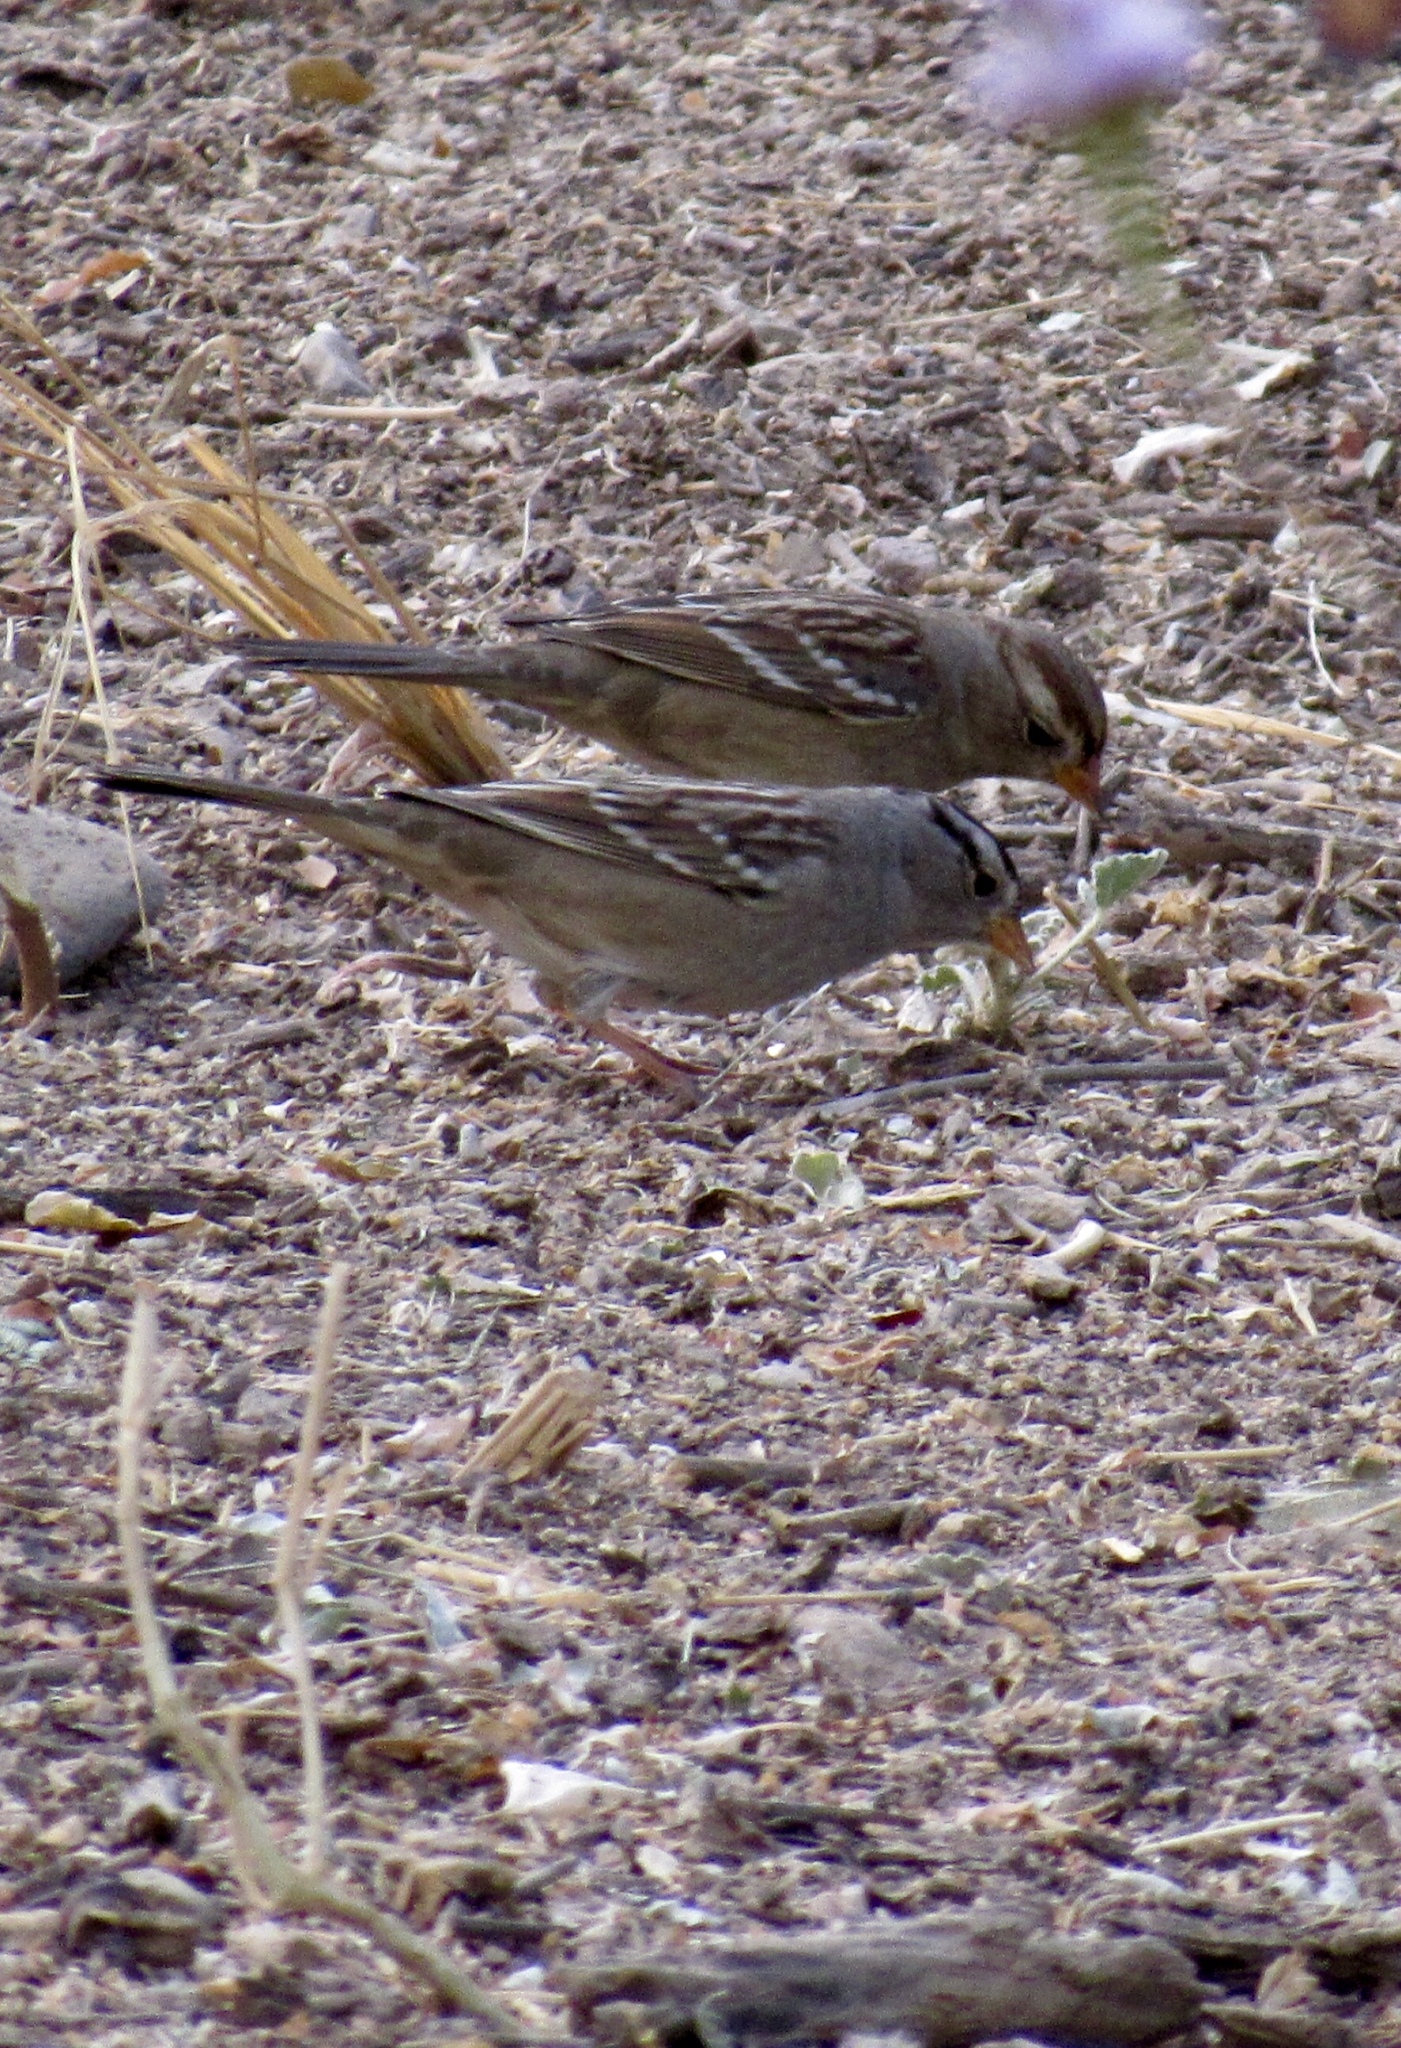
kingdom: Animalia
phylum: Chordata
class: Aves
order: Passeriformes
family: Passerellidae
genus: Zonotrichia
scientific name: Zonotrichia leucophrys
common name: White-crowned sparrow
